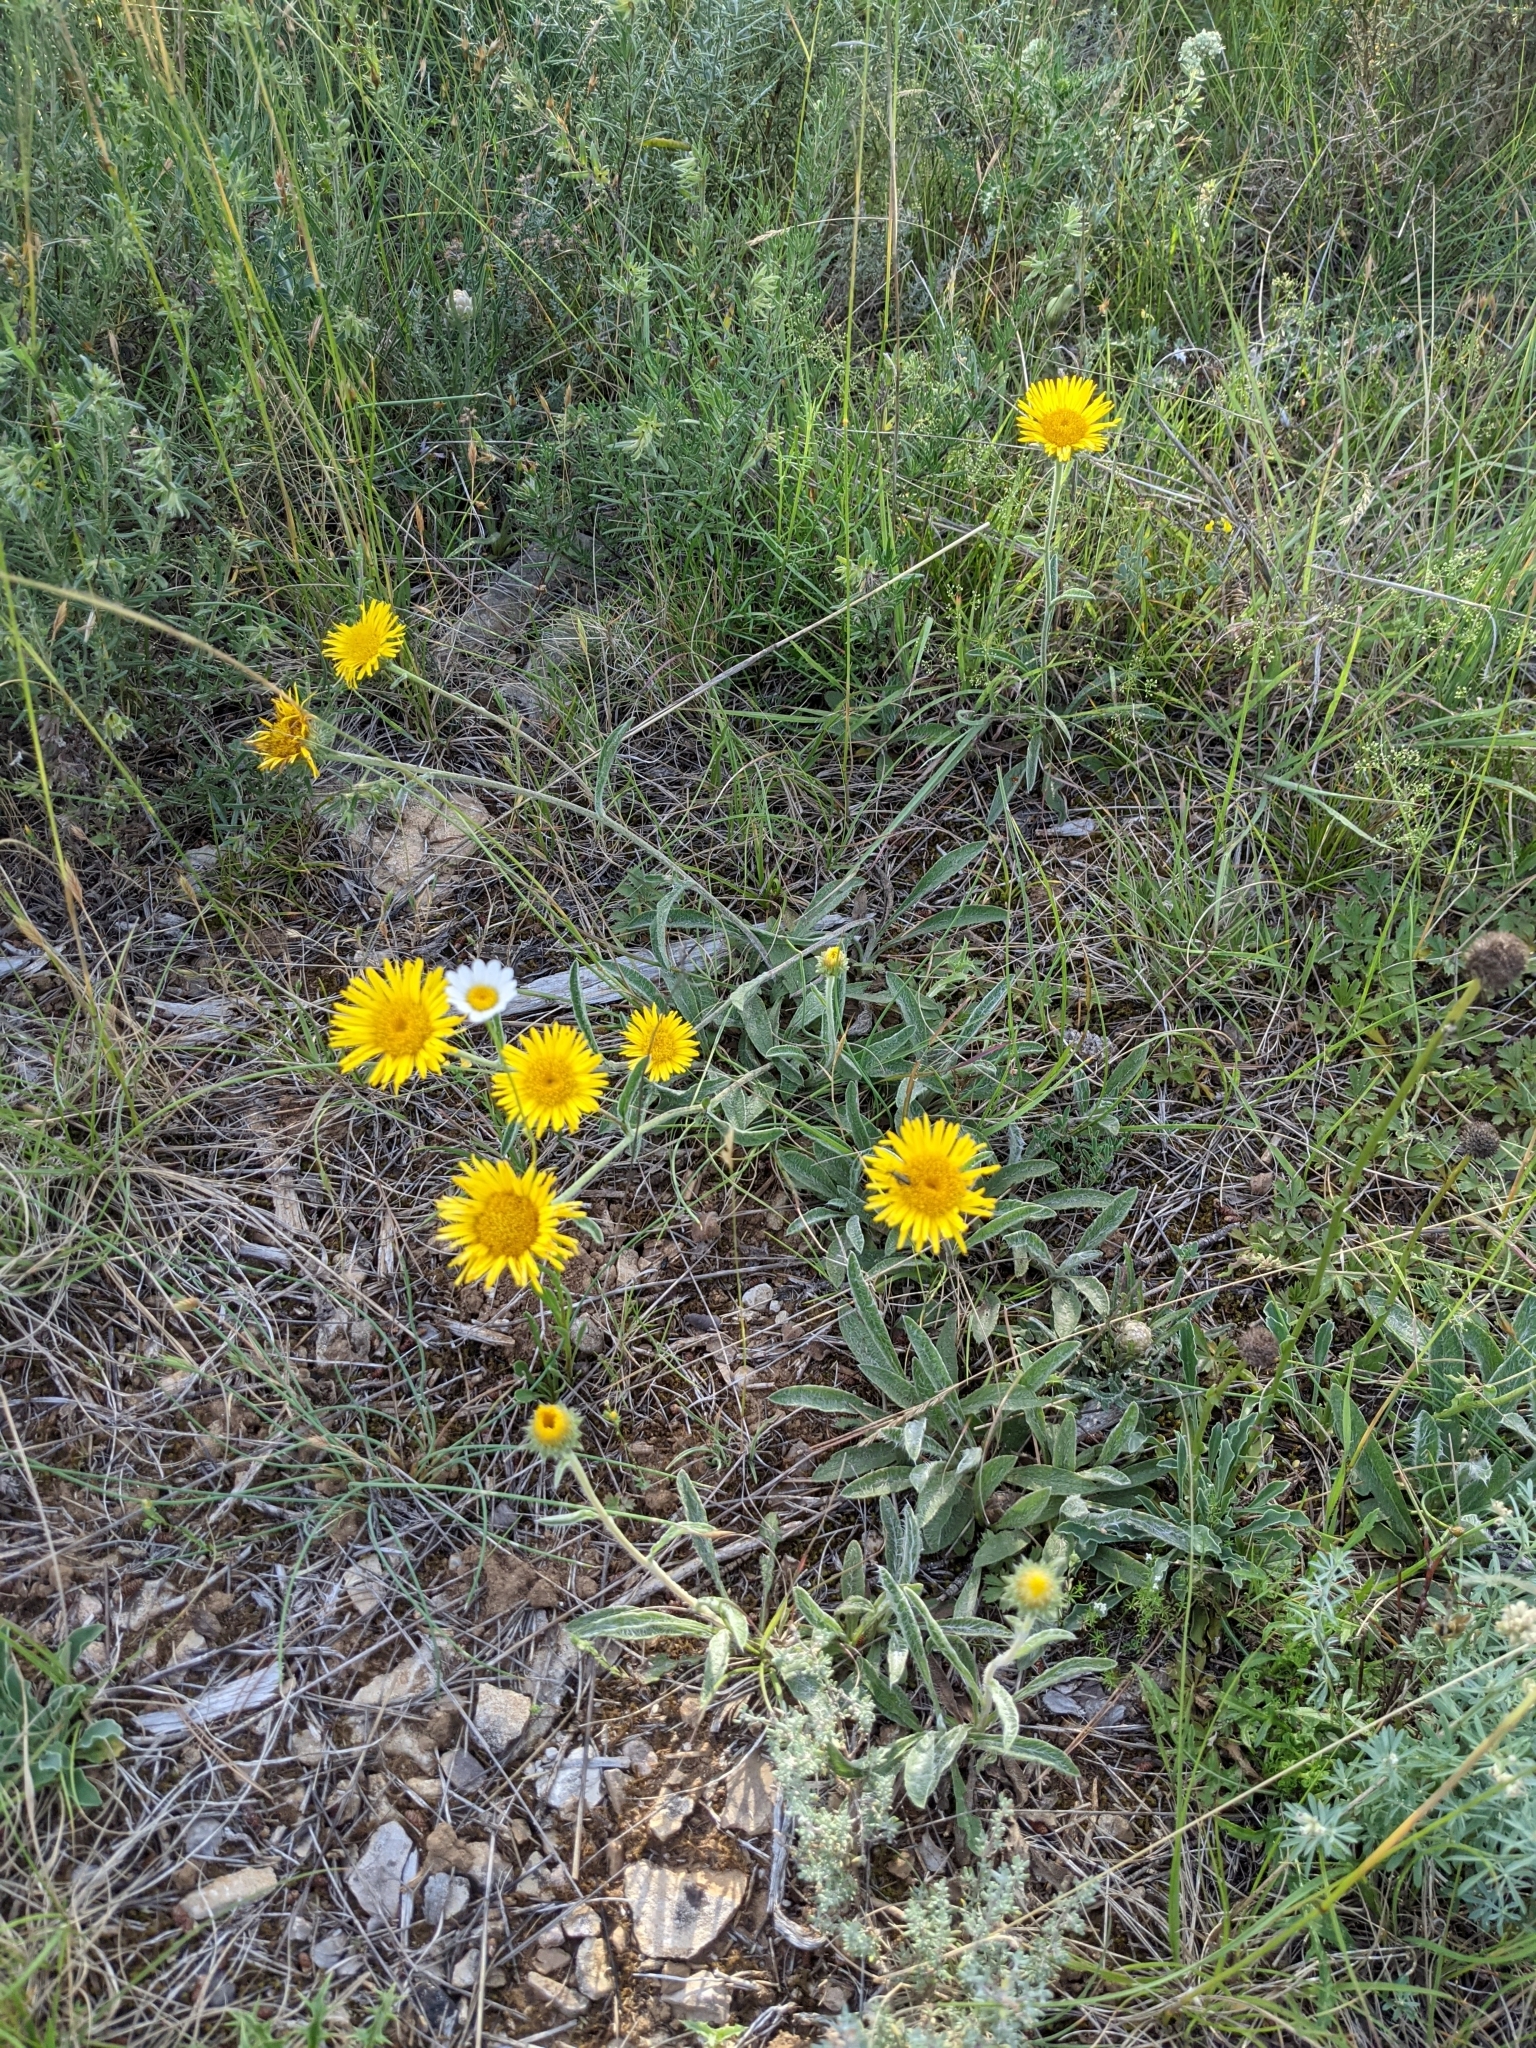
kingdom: Plantae
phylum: Tracheophyta
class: Magnoliopsida
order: Asterales
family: Asteraceae
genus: Pentanema
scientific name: Pentanema montanum
